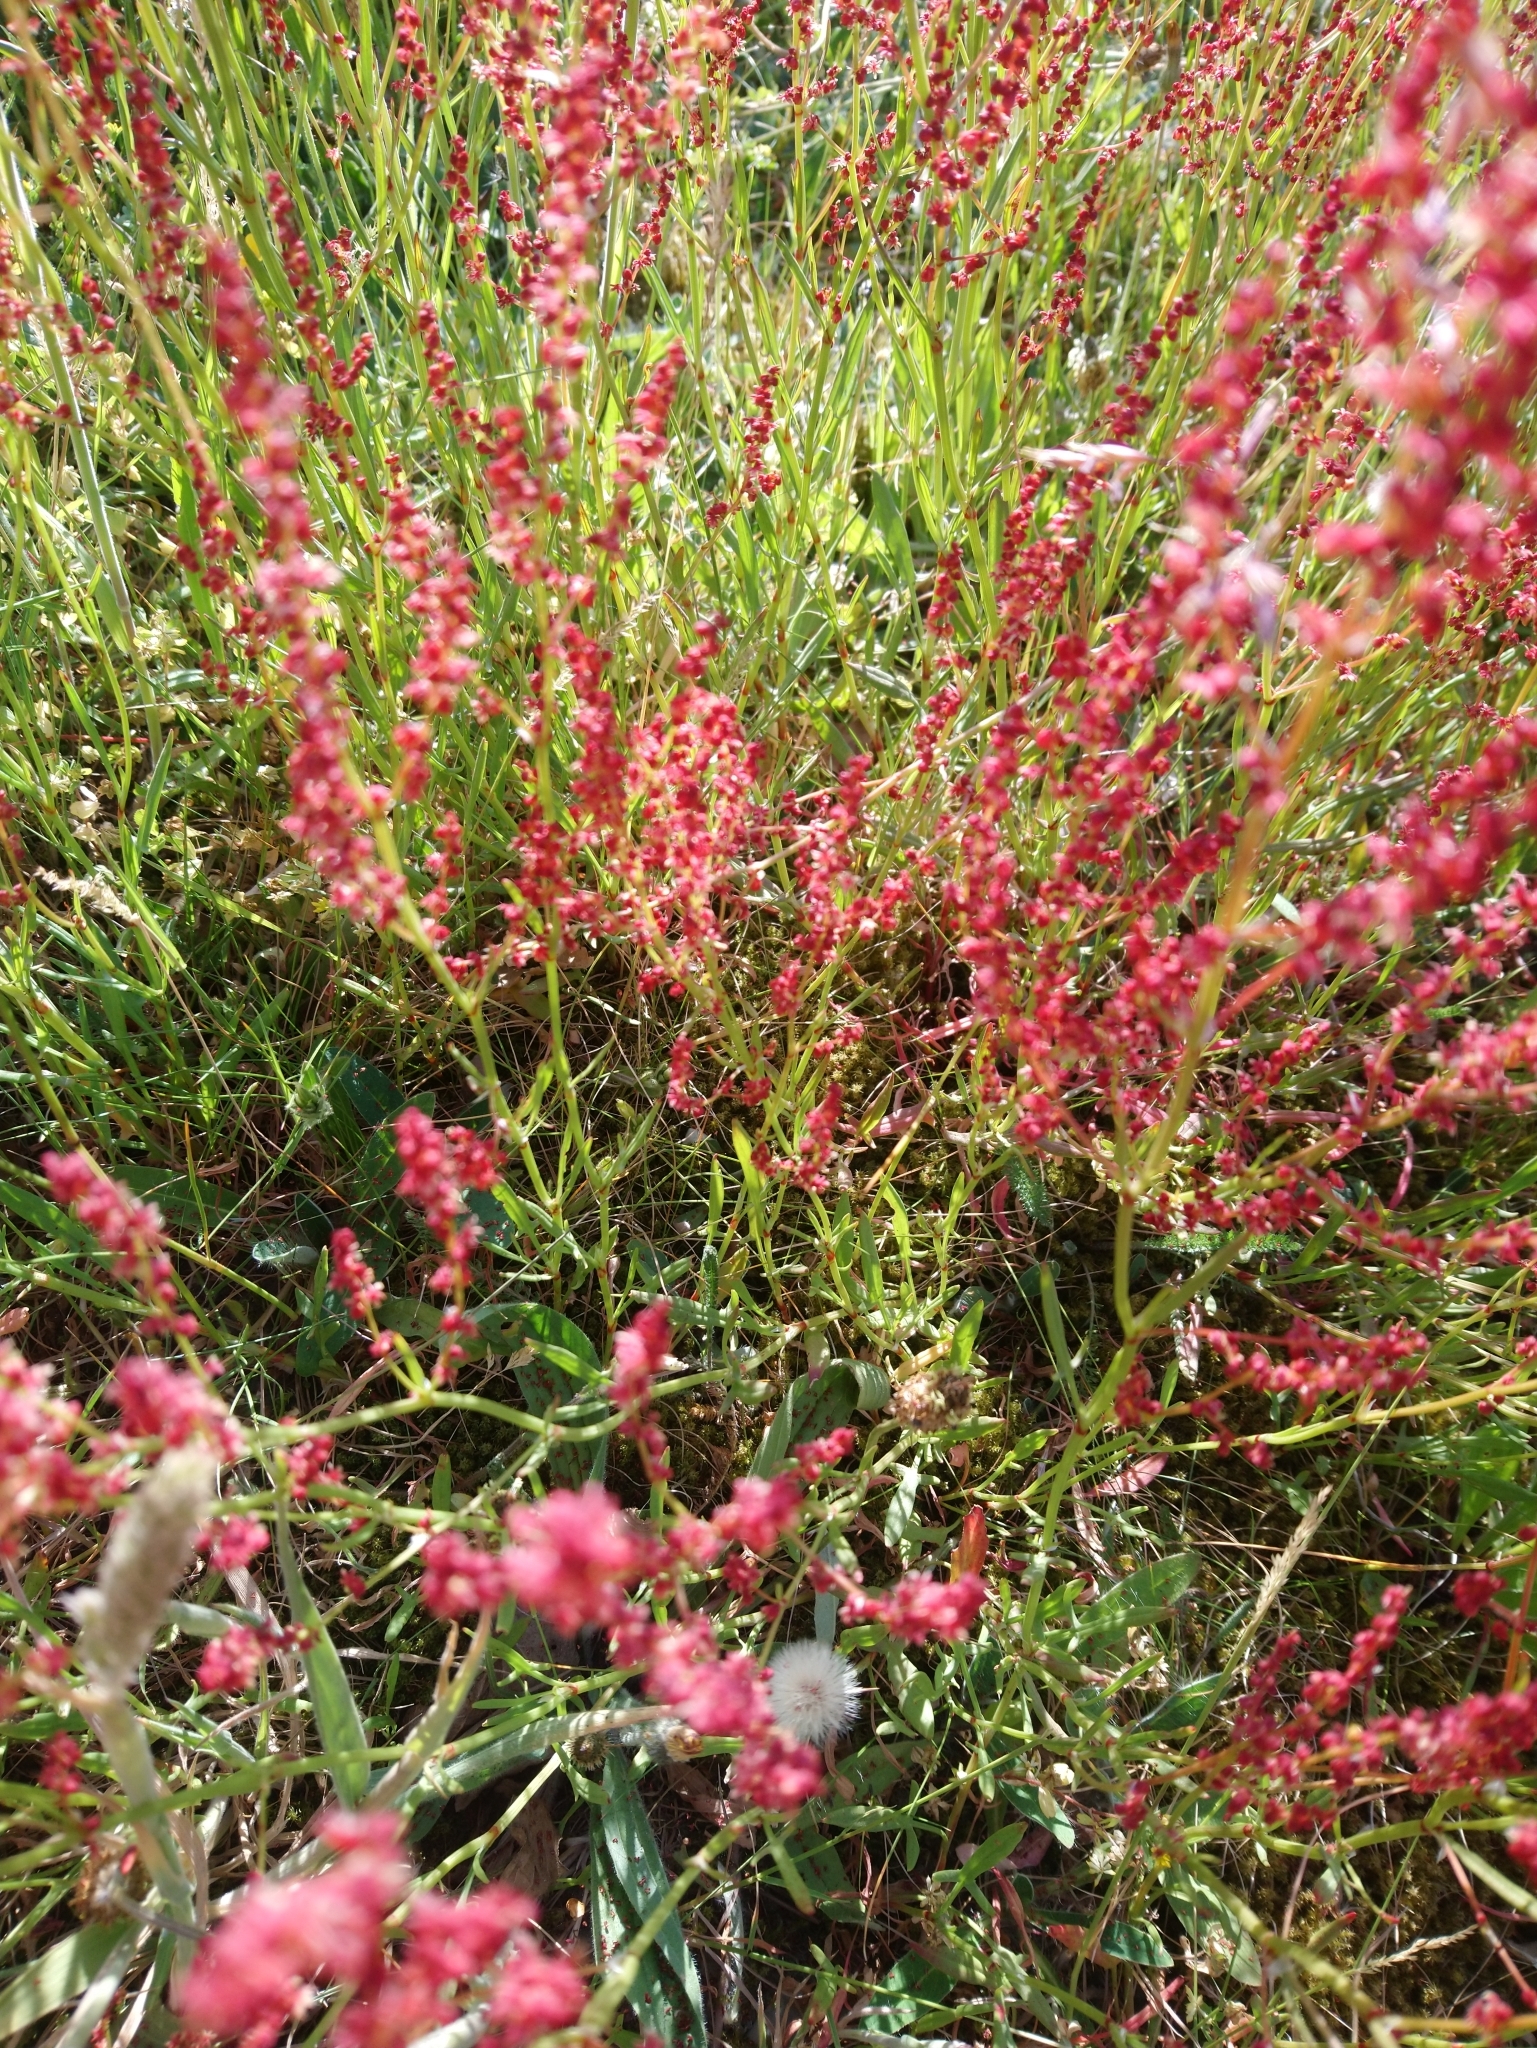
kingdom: Plantae
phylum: Tracheophyta
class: Magnoliopsida
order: Caryophyllales
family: Polygonaceae
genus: Rumex
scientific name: Rumex acetosella
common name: Common sheep sorrel
